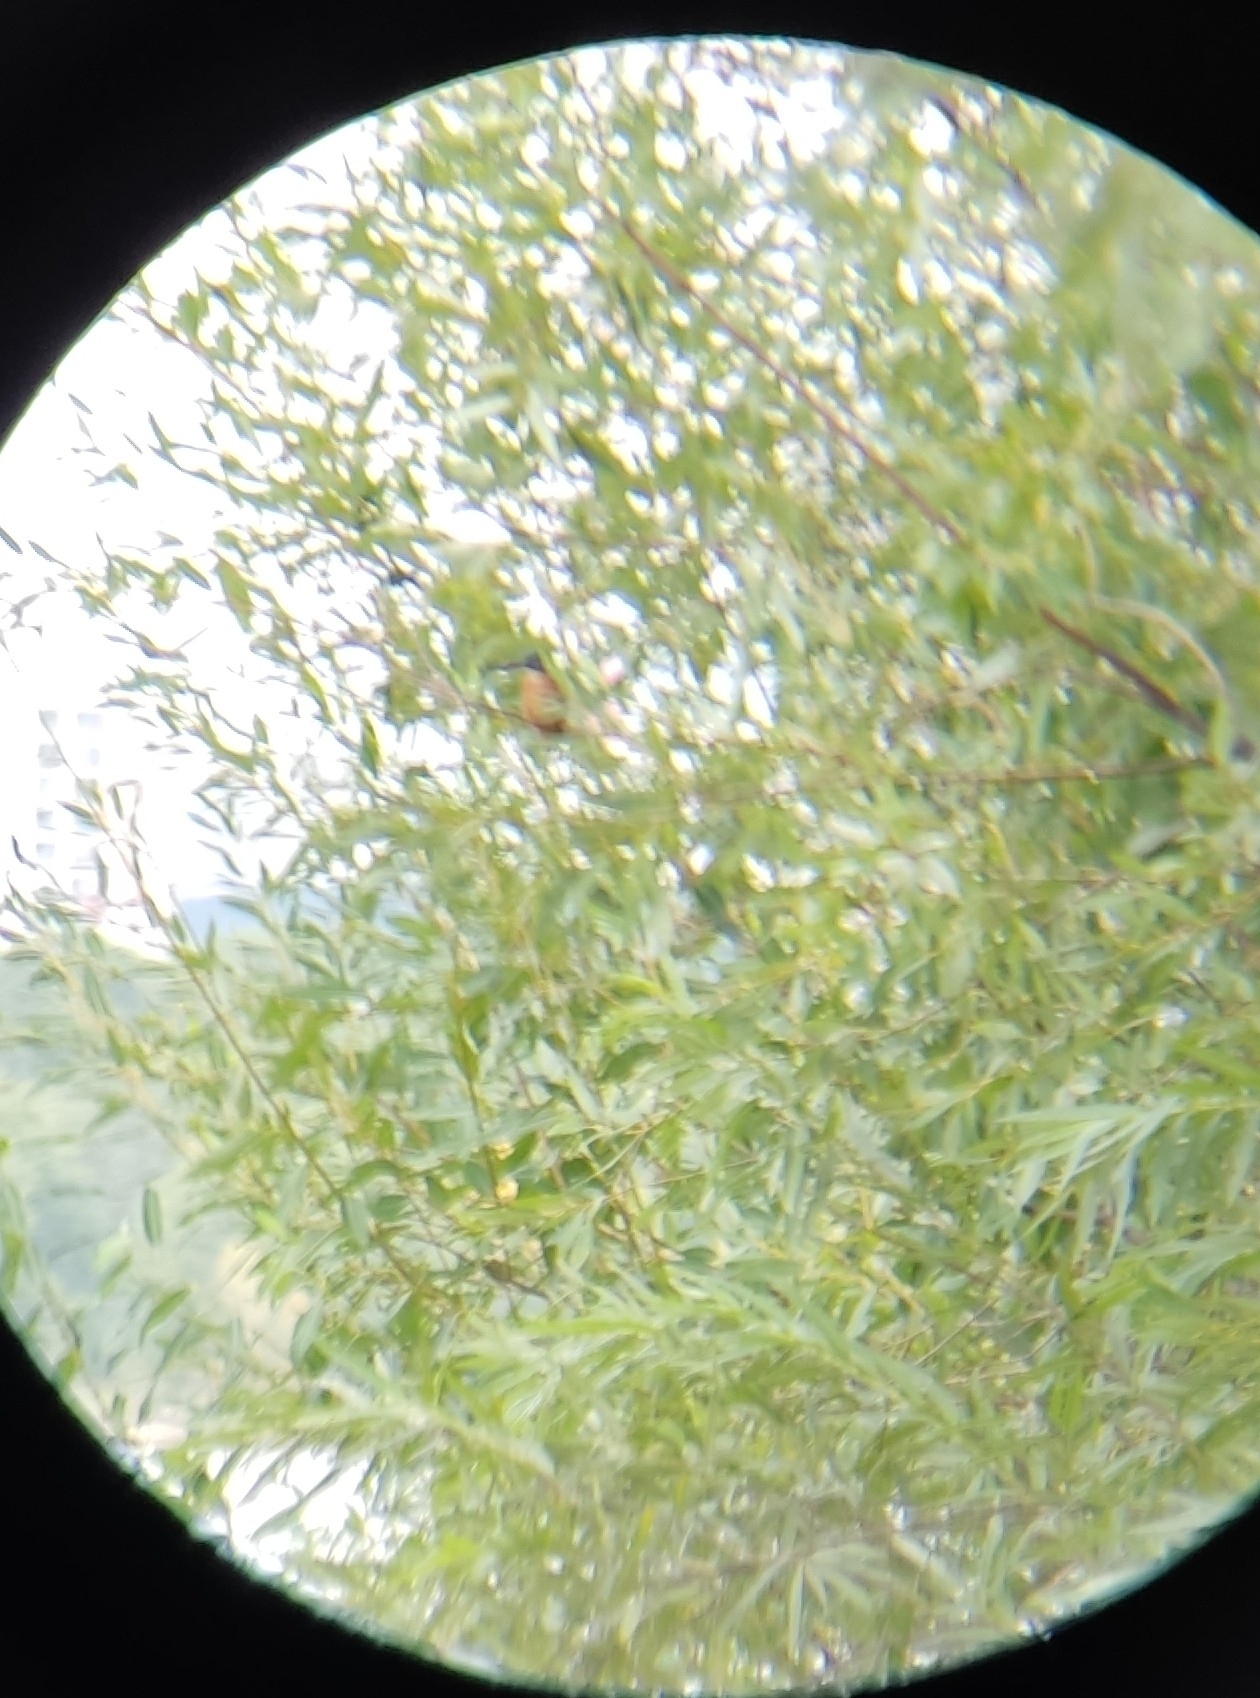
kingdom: Animalia
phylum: Chordata
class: Aves
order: Coraciiformes
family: Alcedinidae
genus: Alcedo
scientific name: Alcedo atthis
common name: Common kingfisher
